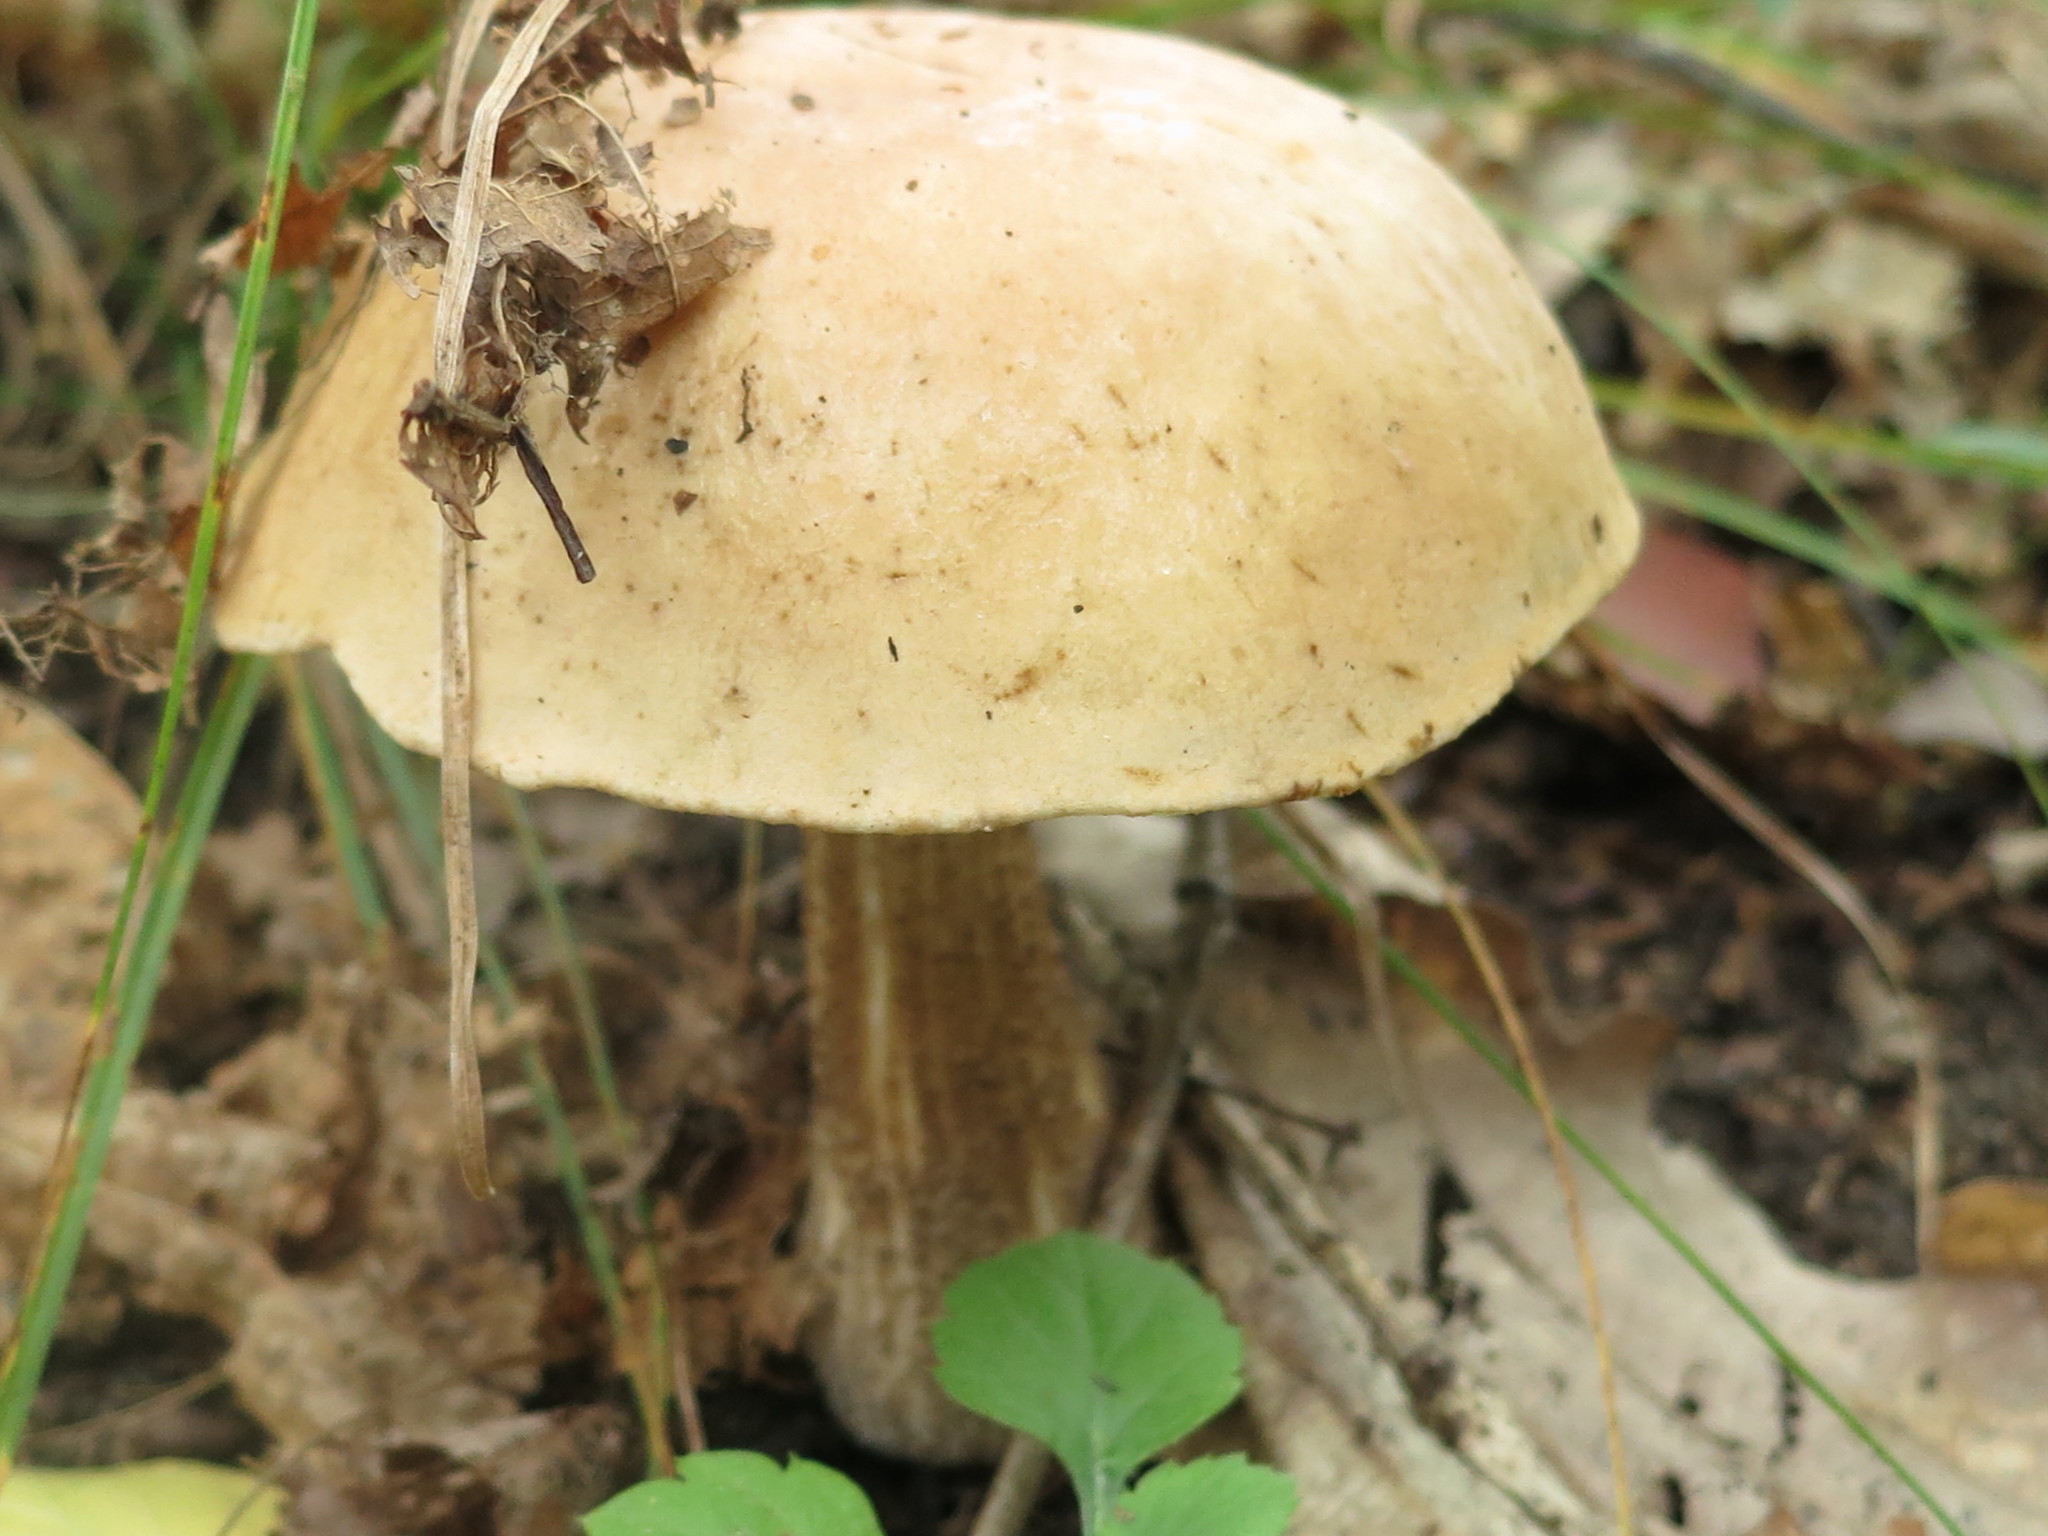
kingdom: Fungi
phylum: Basidiomycota
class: Agaricomycetes
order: Boletales
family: Boletaceae
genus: Leccinum
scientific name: Leccinum scabrum
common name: Blushing bolete
